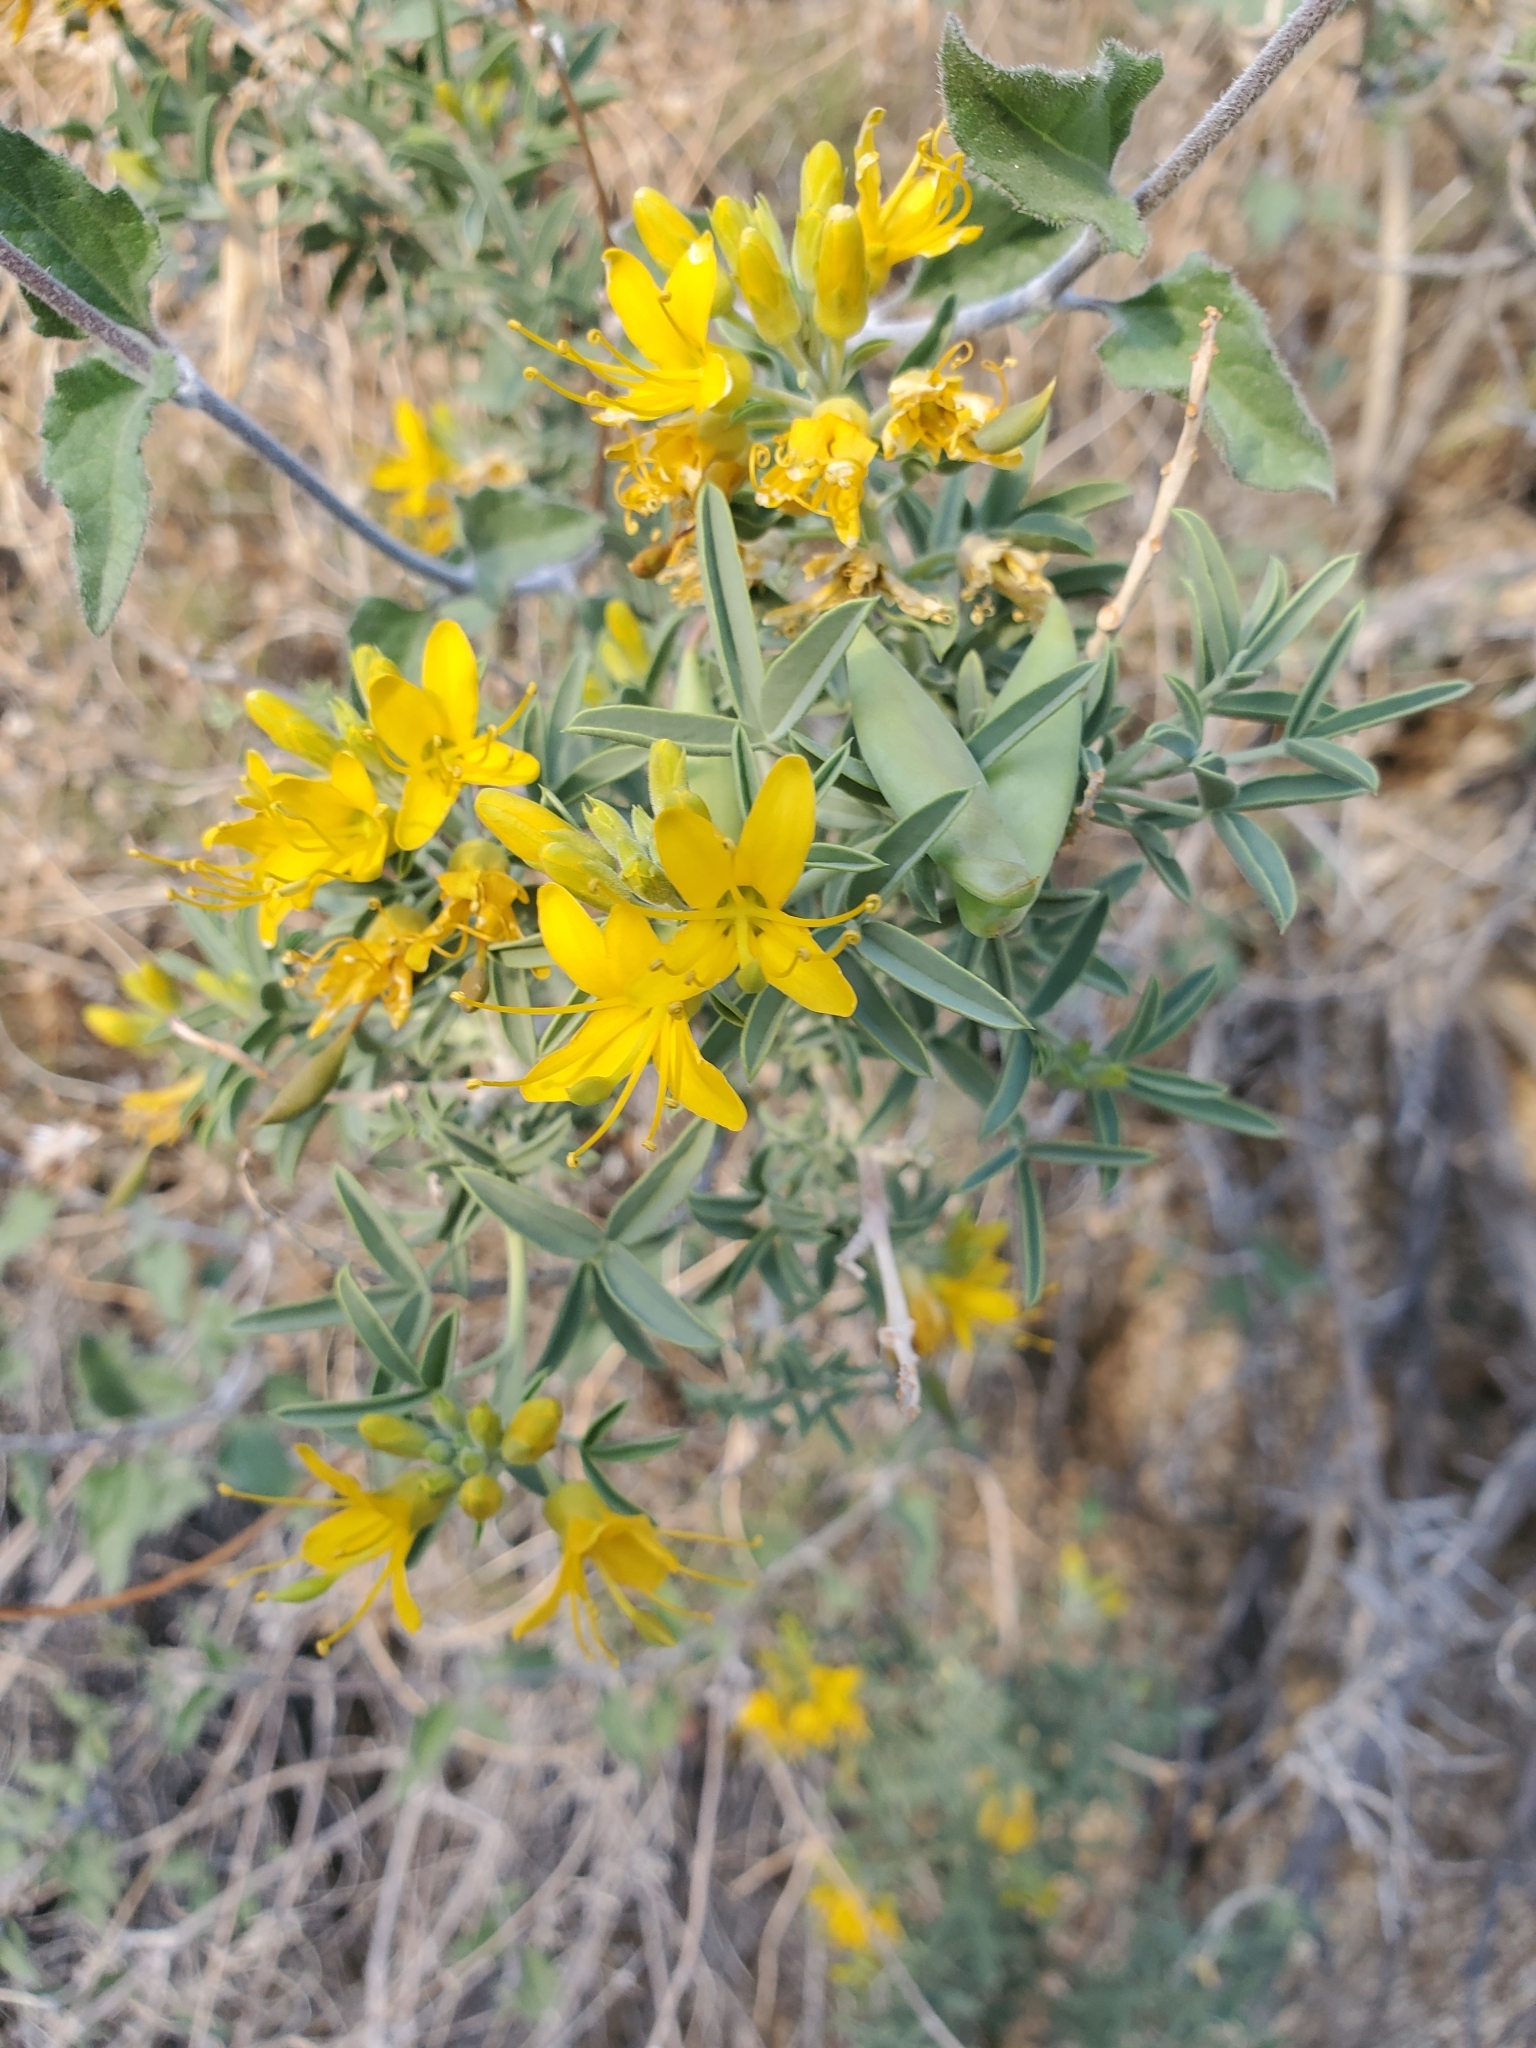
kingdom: Plantae
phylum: Tracheophyta
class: Magnoliopsida
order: Brassicales
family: Cleomaceae
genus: Cleomella
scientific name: Cleomella arborea
